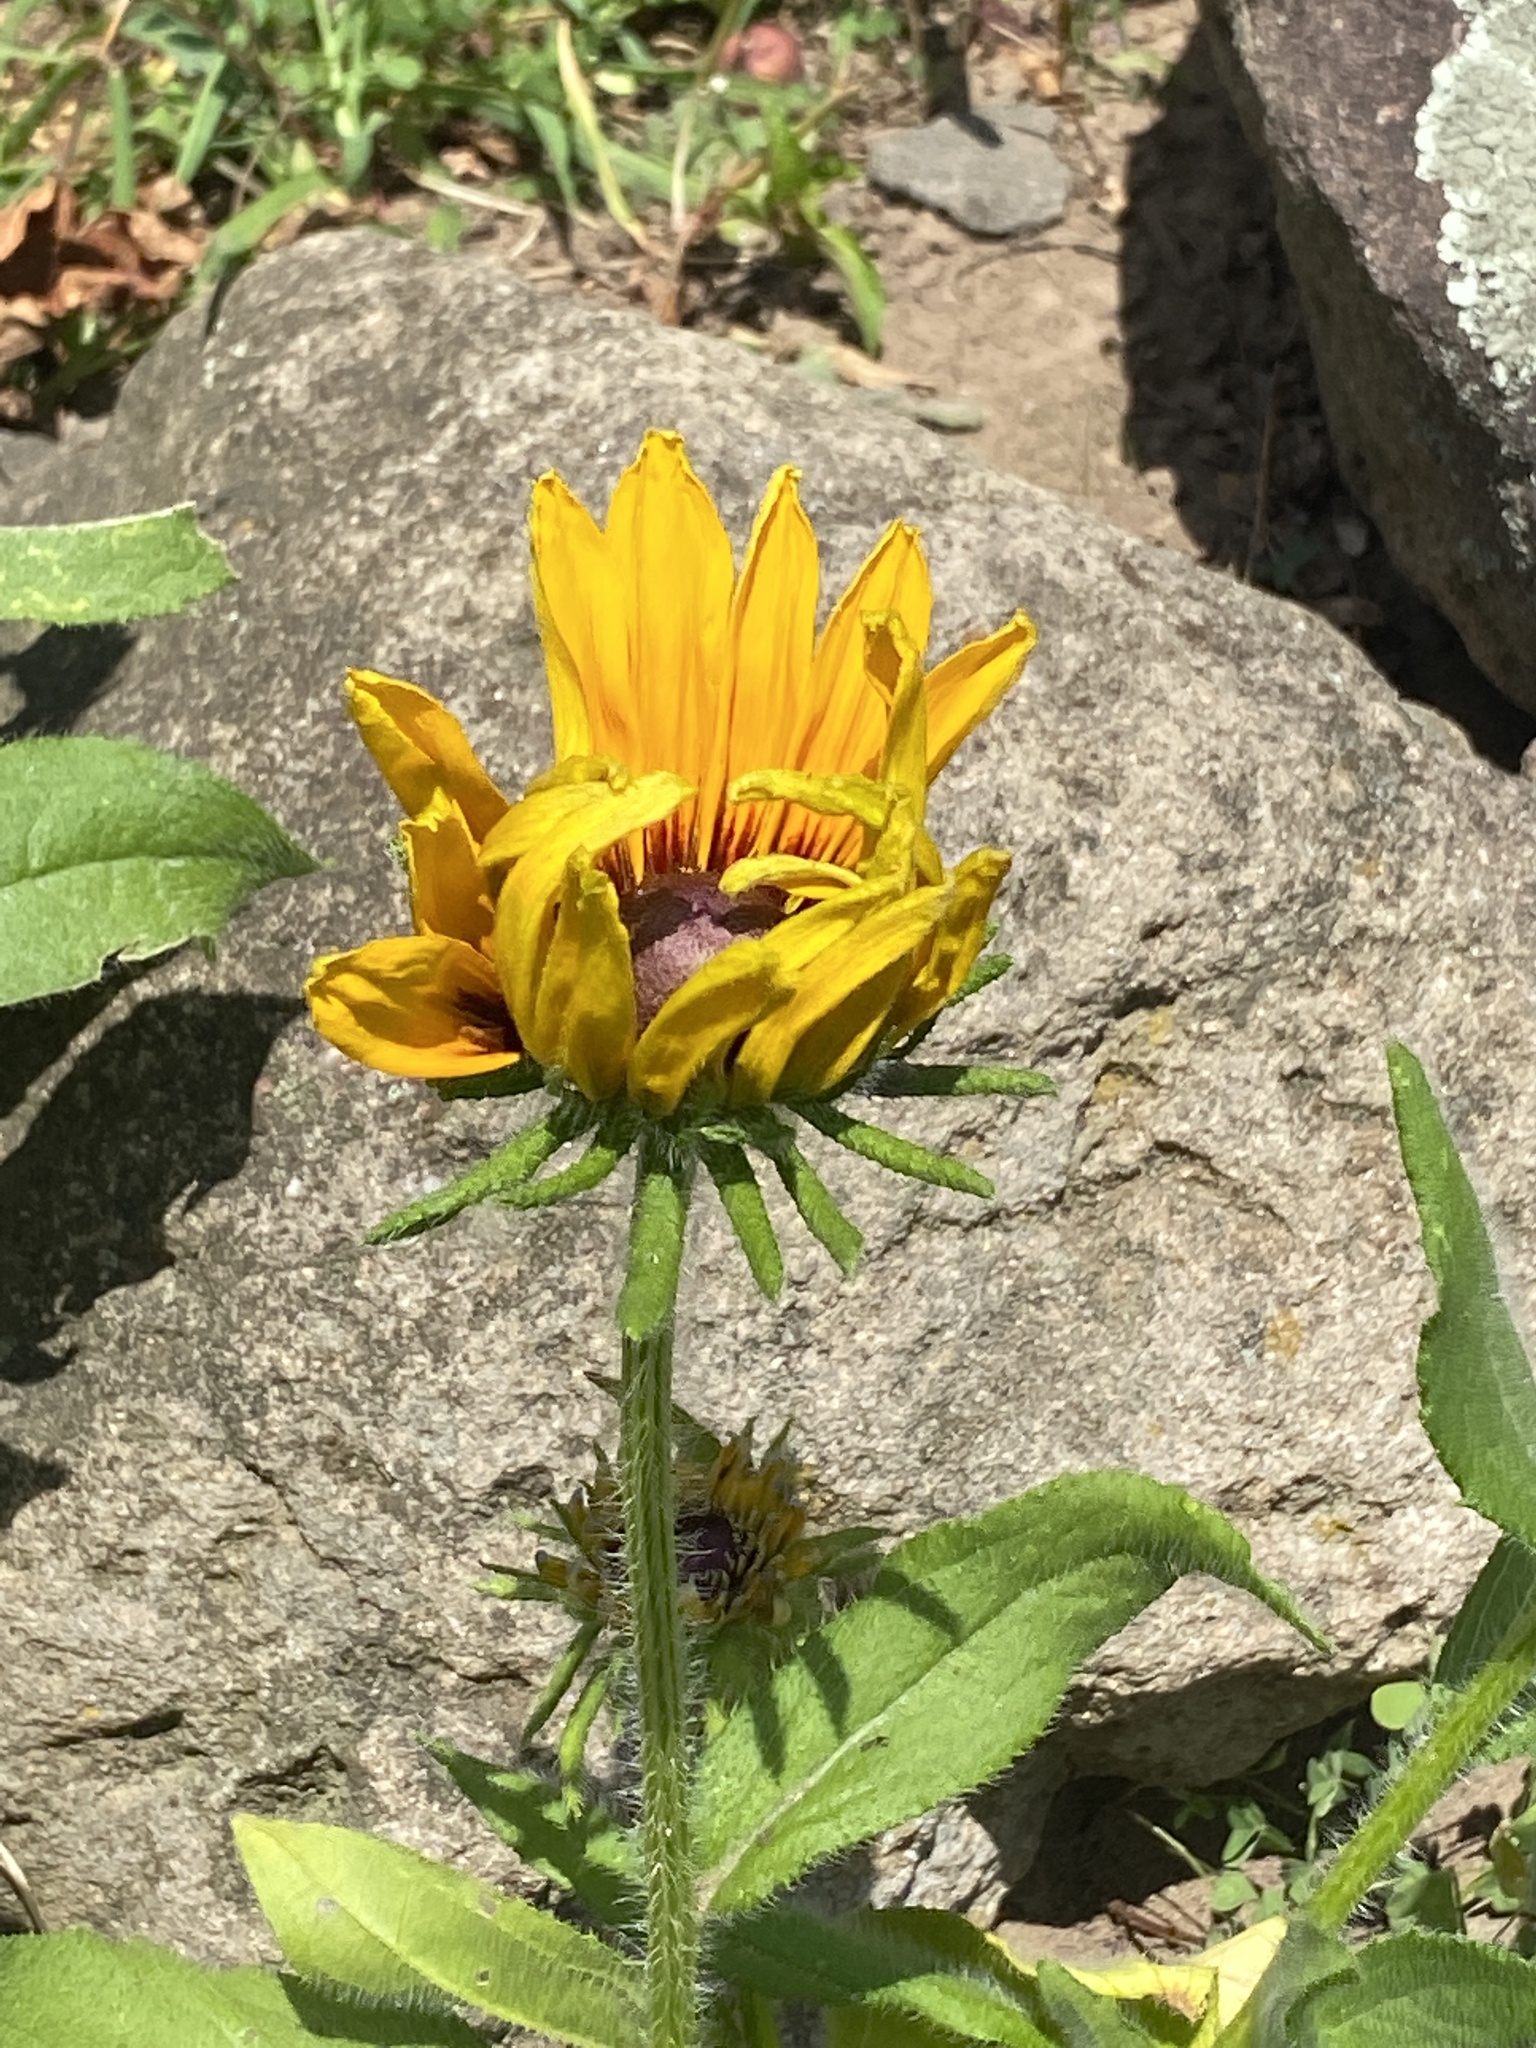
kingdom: Plantae
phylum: Tracheophyta
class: Magnoliopsida
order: Asterales
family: Asteraceae
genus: Rudbeckia
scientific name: Rudbeckia hirta
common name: Black-eyed-susan
